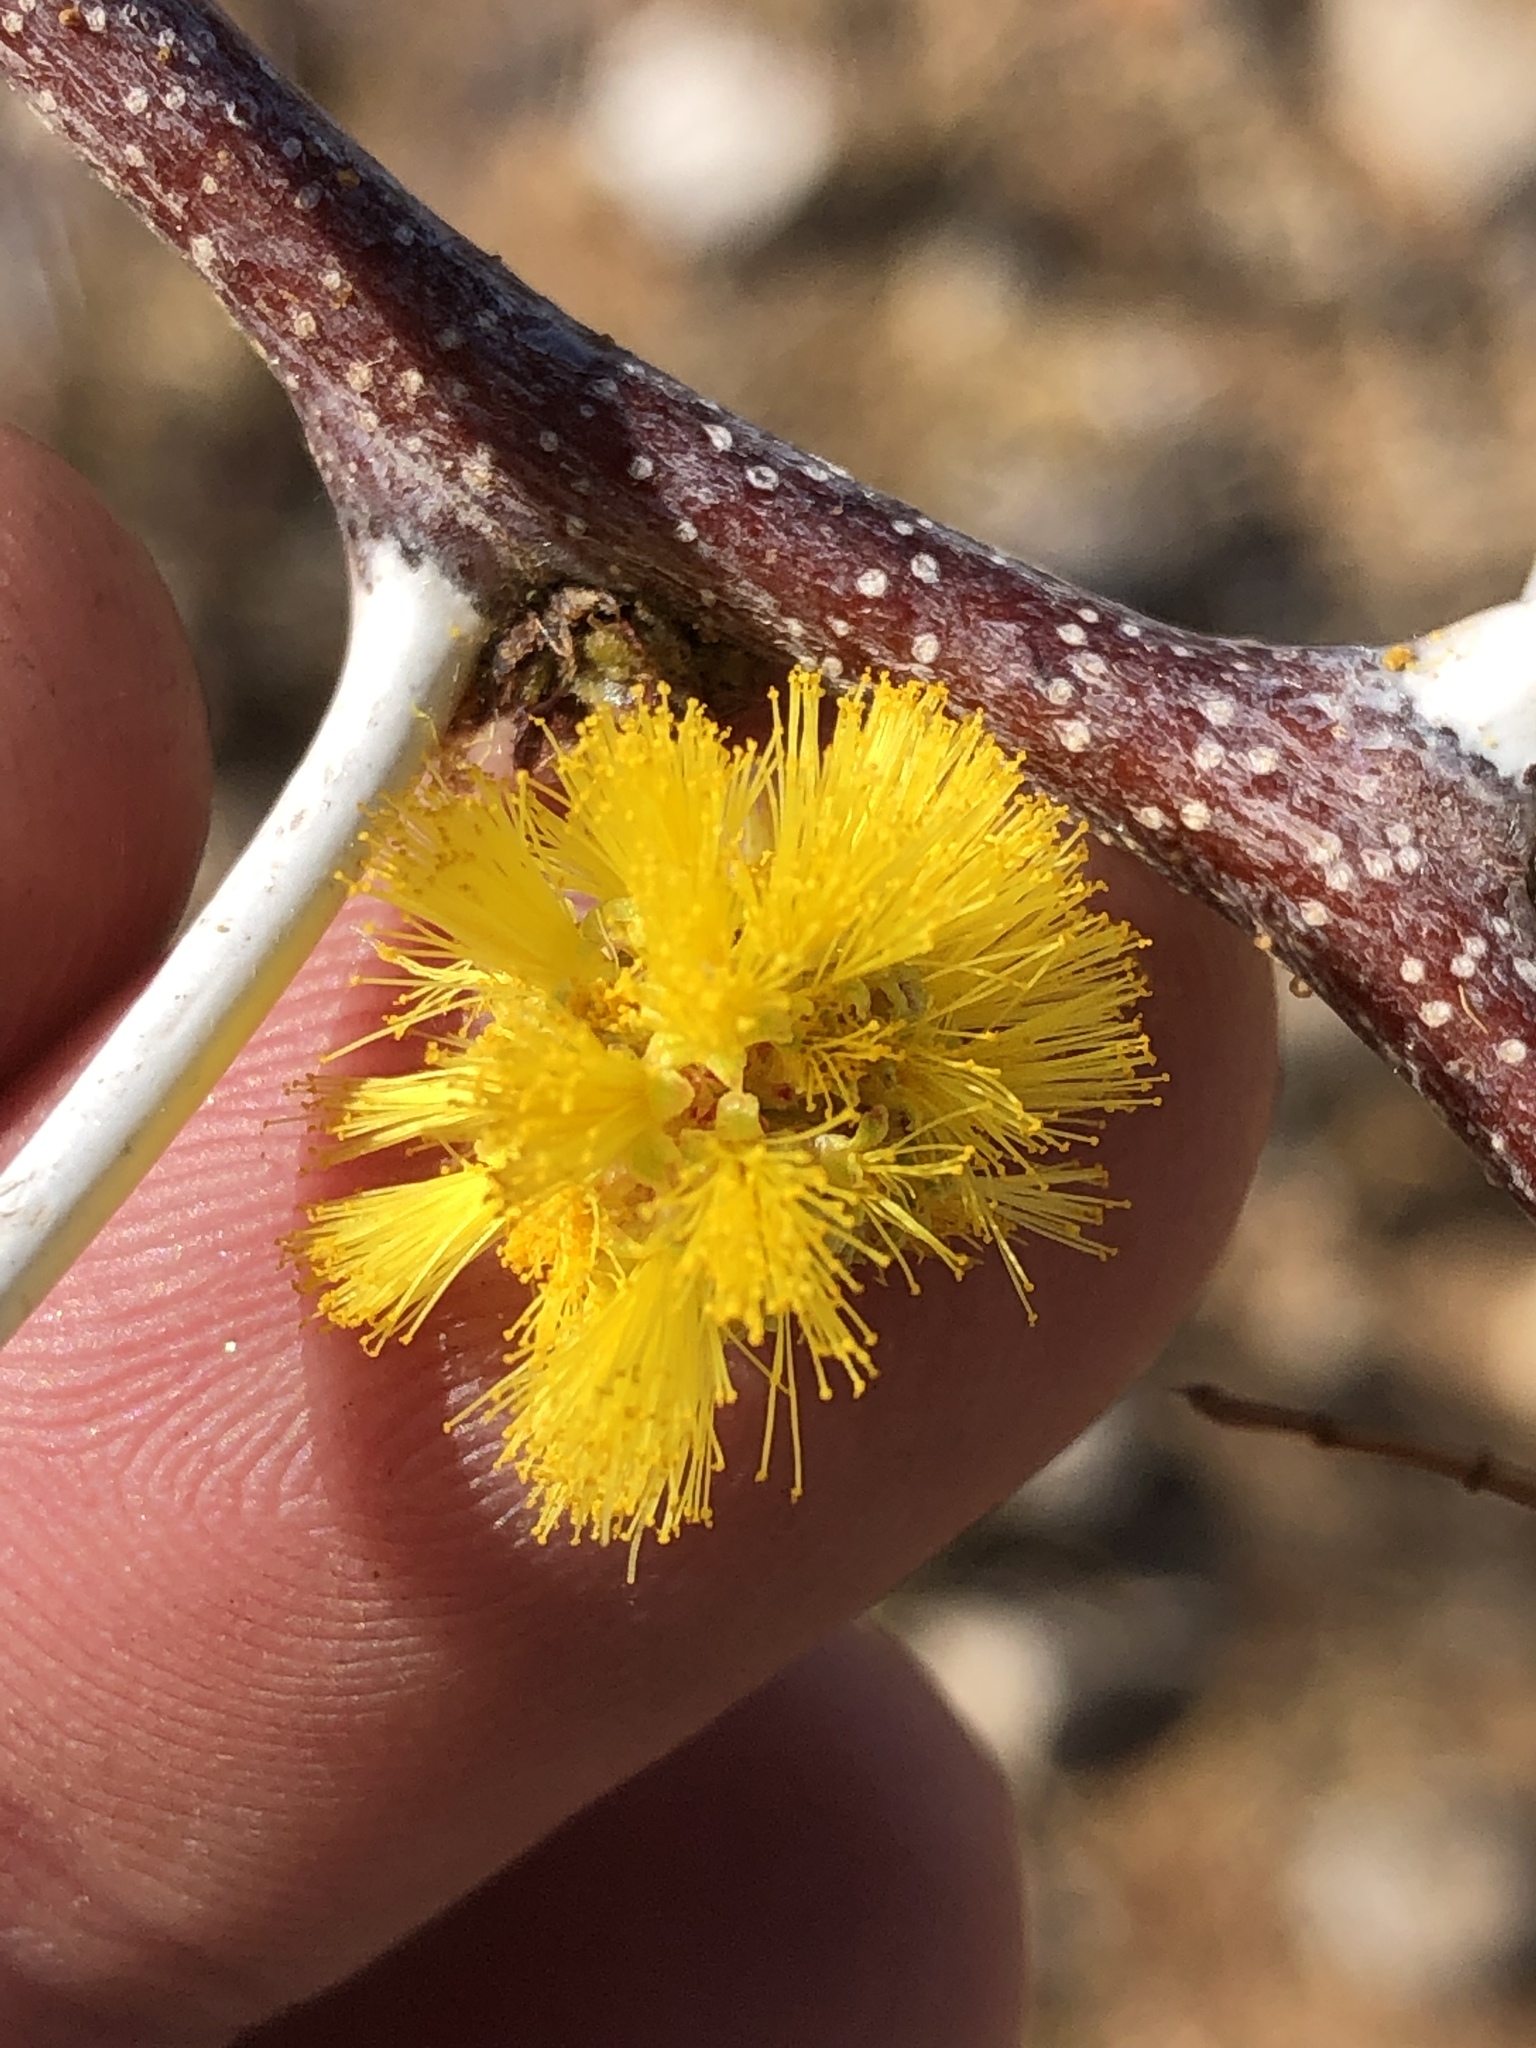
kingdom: Plantae
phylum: Tracheophyta
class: Magnoliopsida
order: Fabales
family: Fabaceae
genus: Vachellia
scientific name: Vachellia nebrownii
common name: Water acacia
